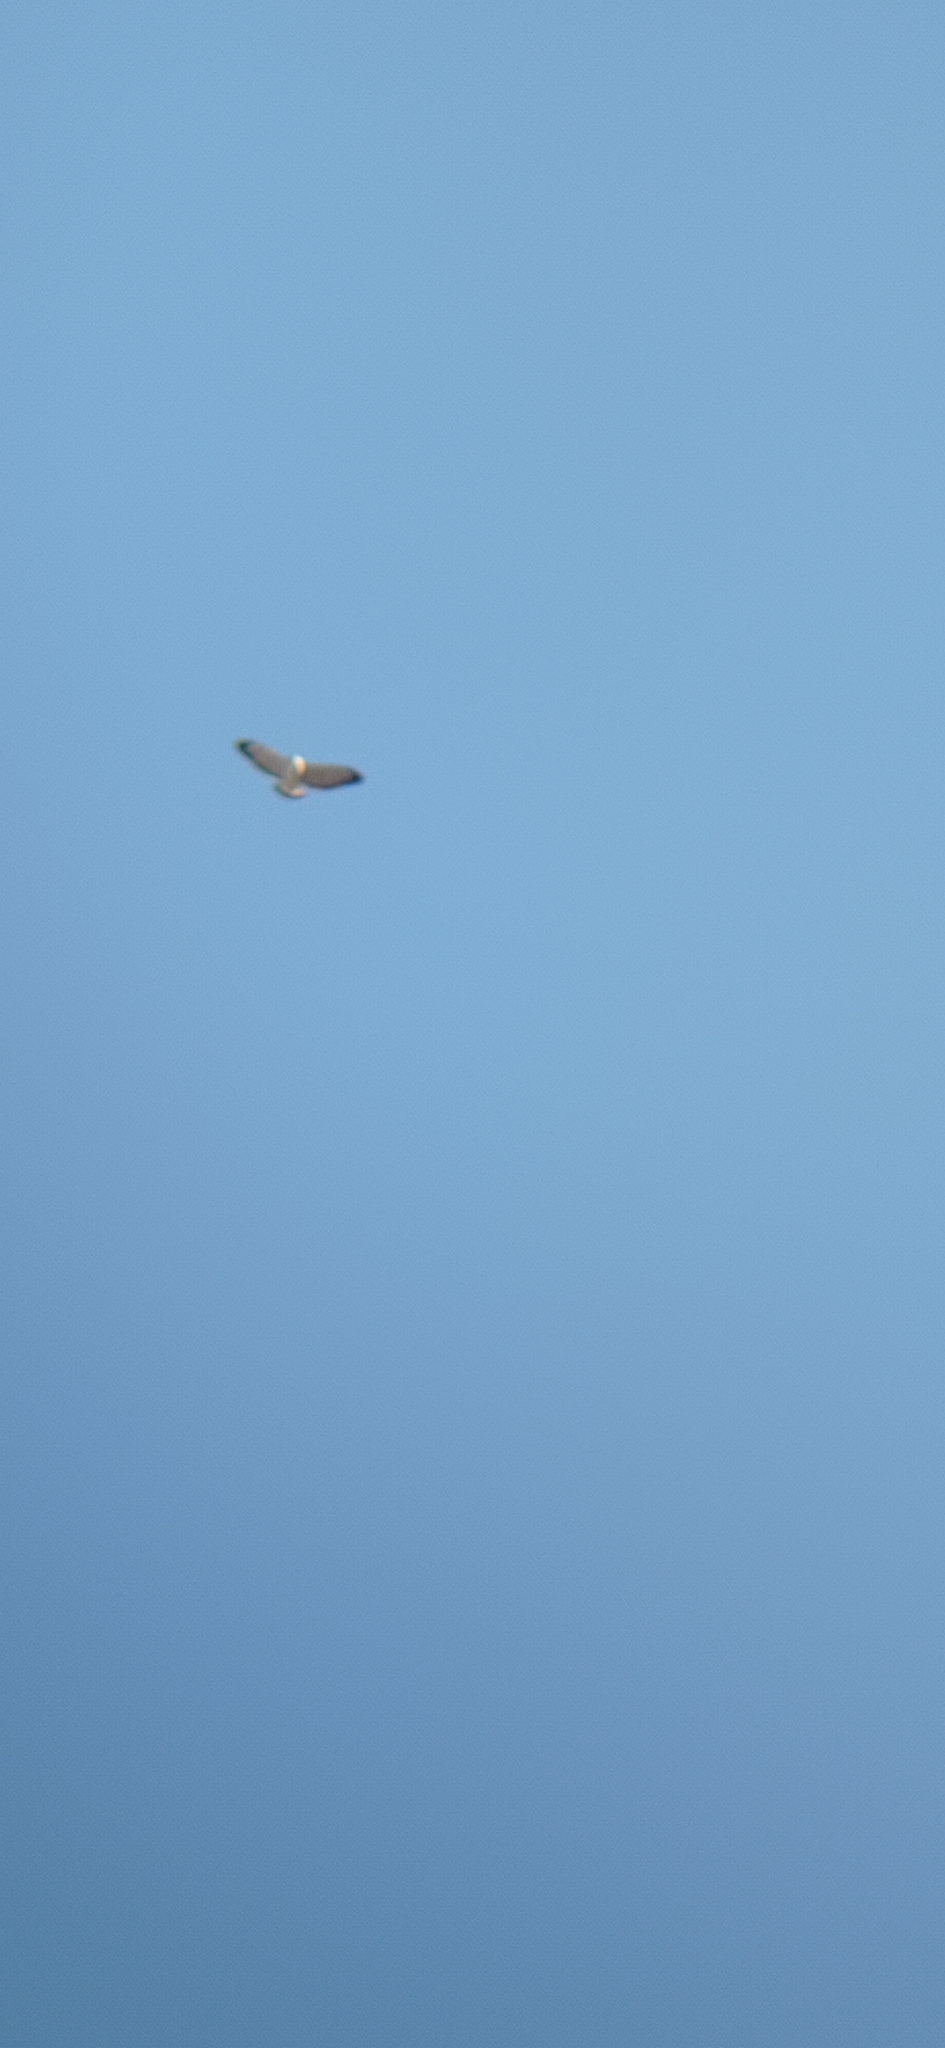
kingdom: Animalia
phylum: Chordata
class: Aves
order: Accipitriformes
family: Accipitridae
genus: Buteo
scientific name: Buteo polyosoma
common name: Variable hawk
